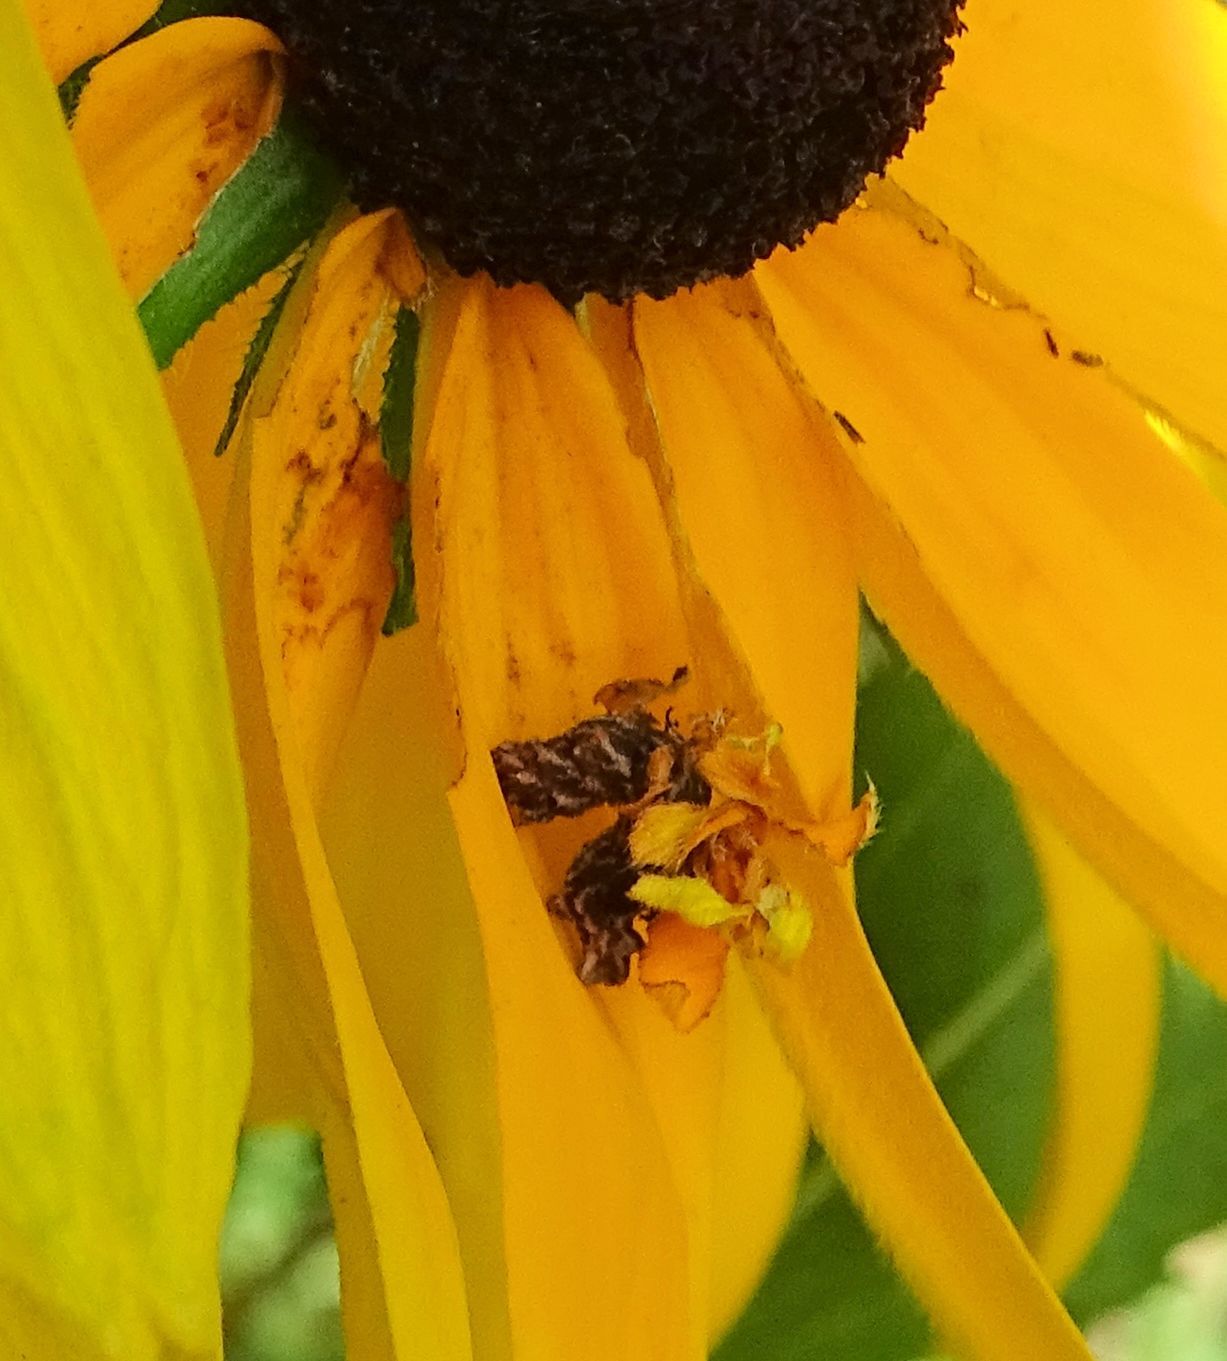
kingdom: Animalia
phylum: Arthropoda
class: Insecta
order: Lepidoptera
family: Geometridae
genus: Synchlora
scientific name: Synchlora aerata
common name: Wavy-lined emerald
